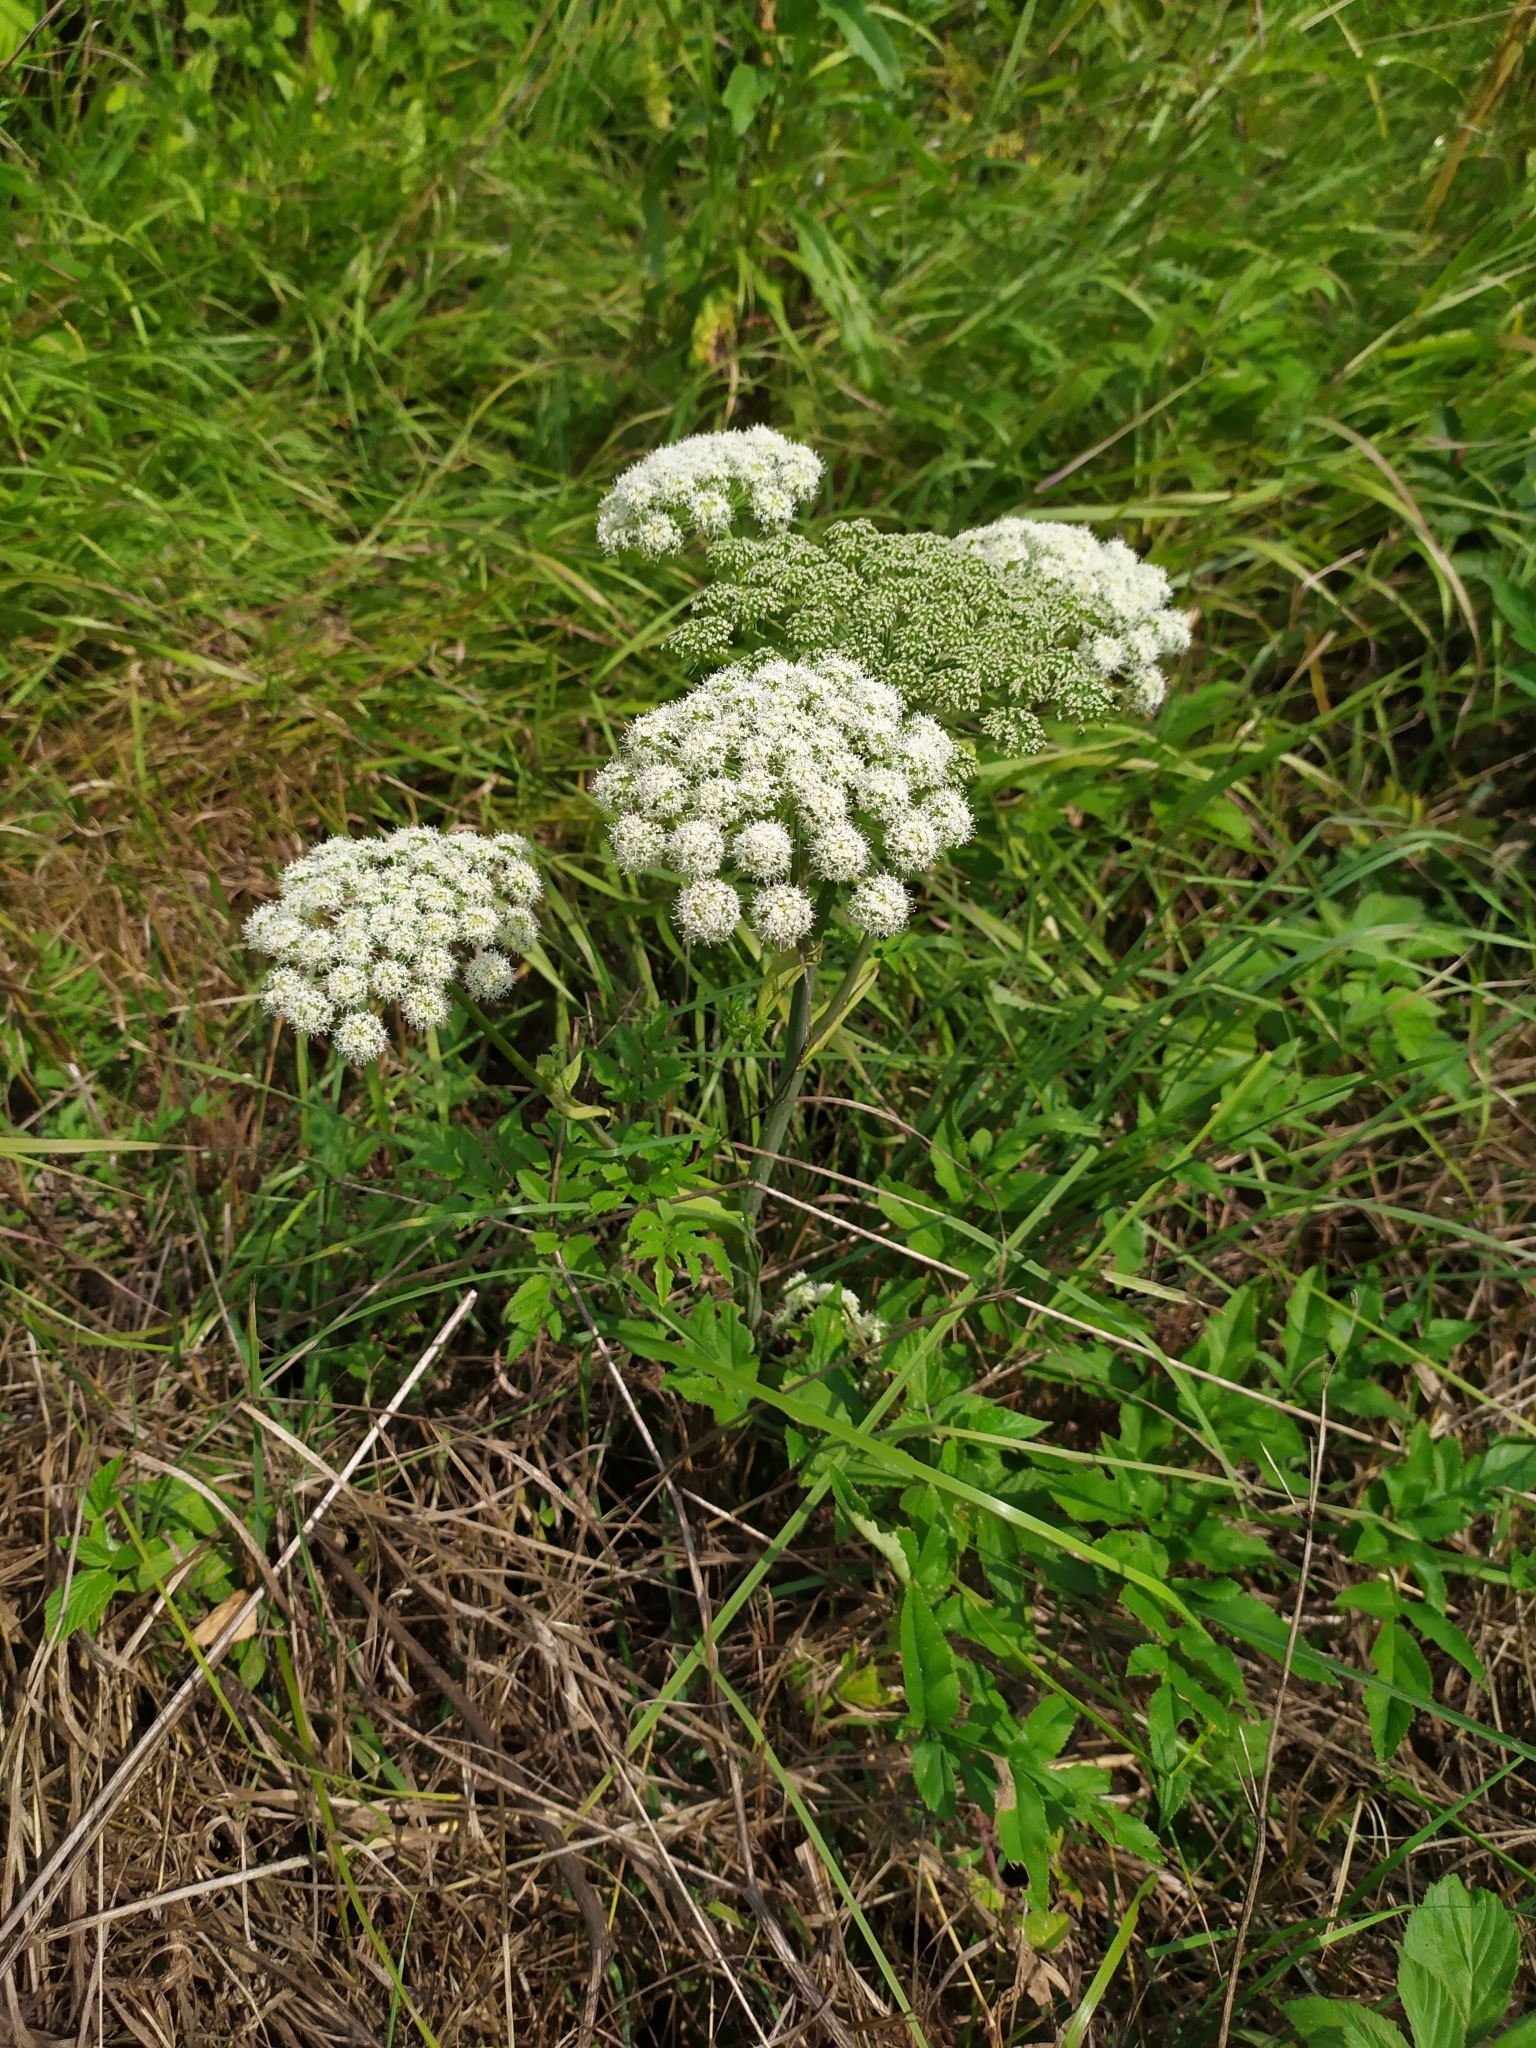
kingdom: Plantae
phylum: Tracheophyta
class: Magnoliopsida
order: Apiales
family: Apiaceae
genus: Angelica
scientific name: Angelica sylvestris
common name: Wild angelica
